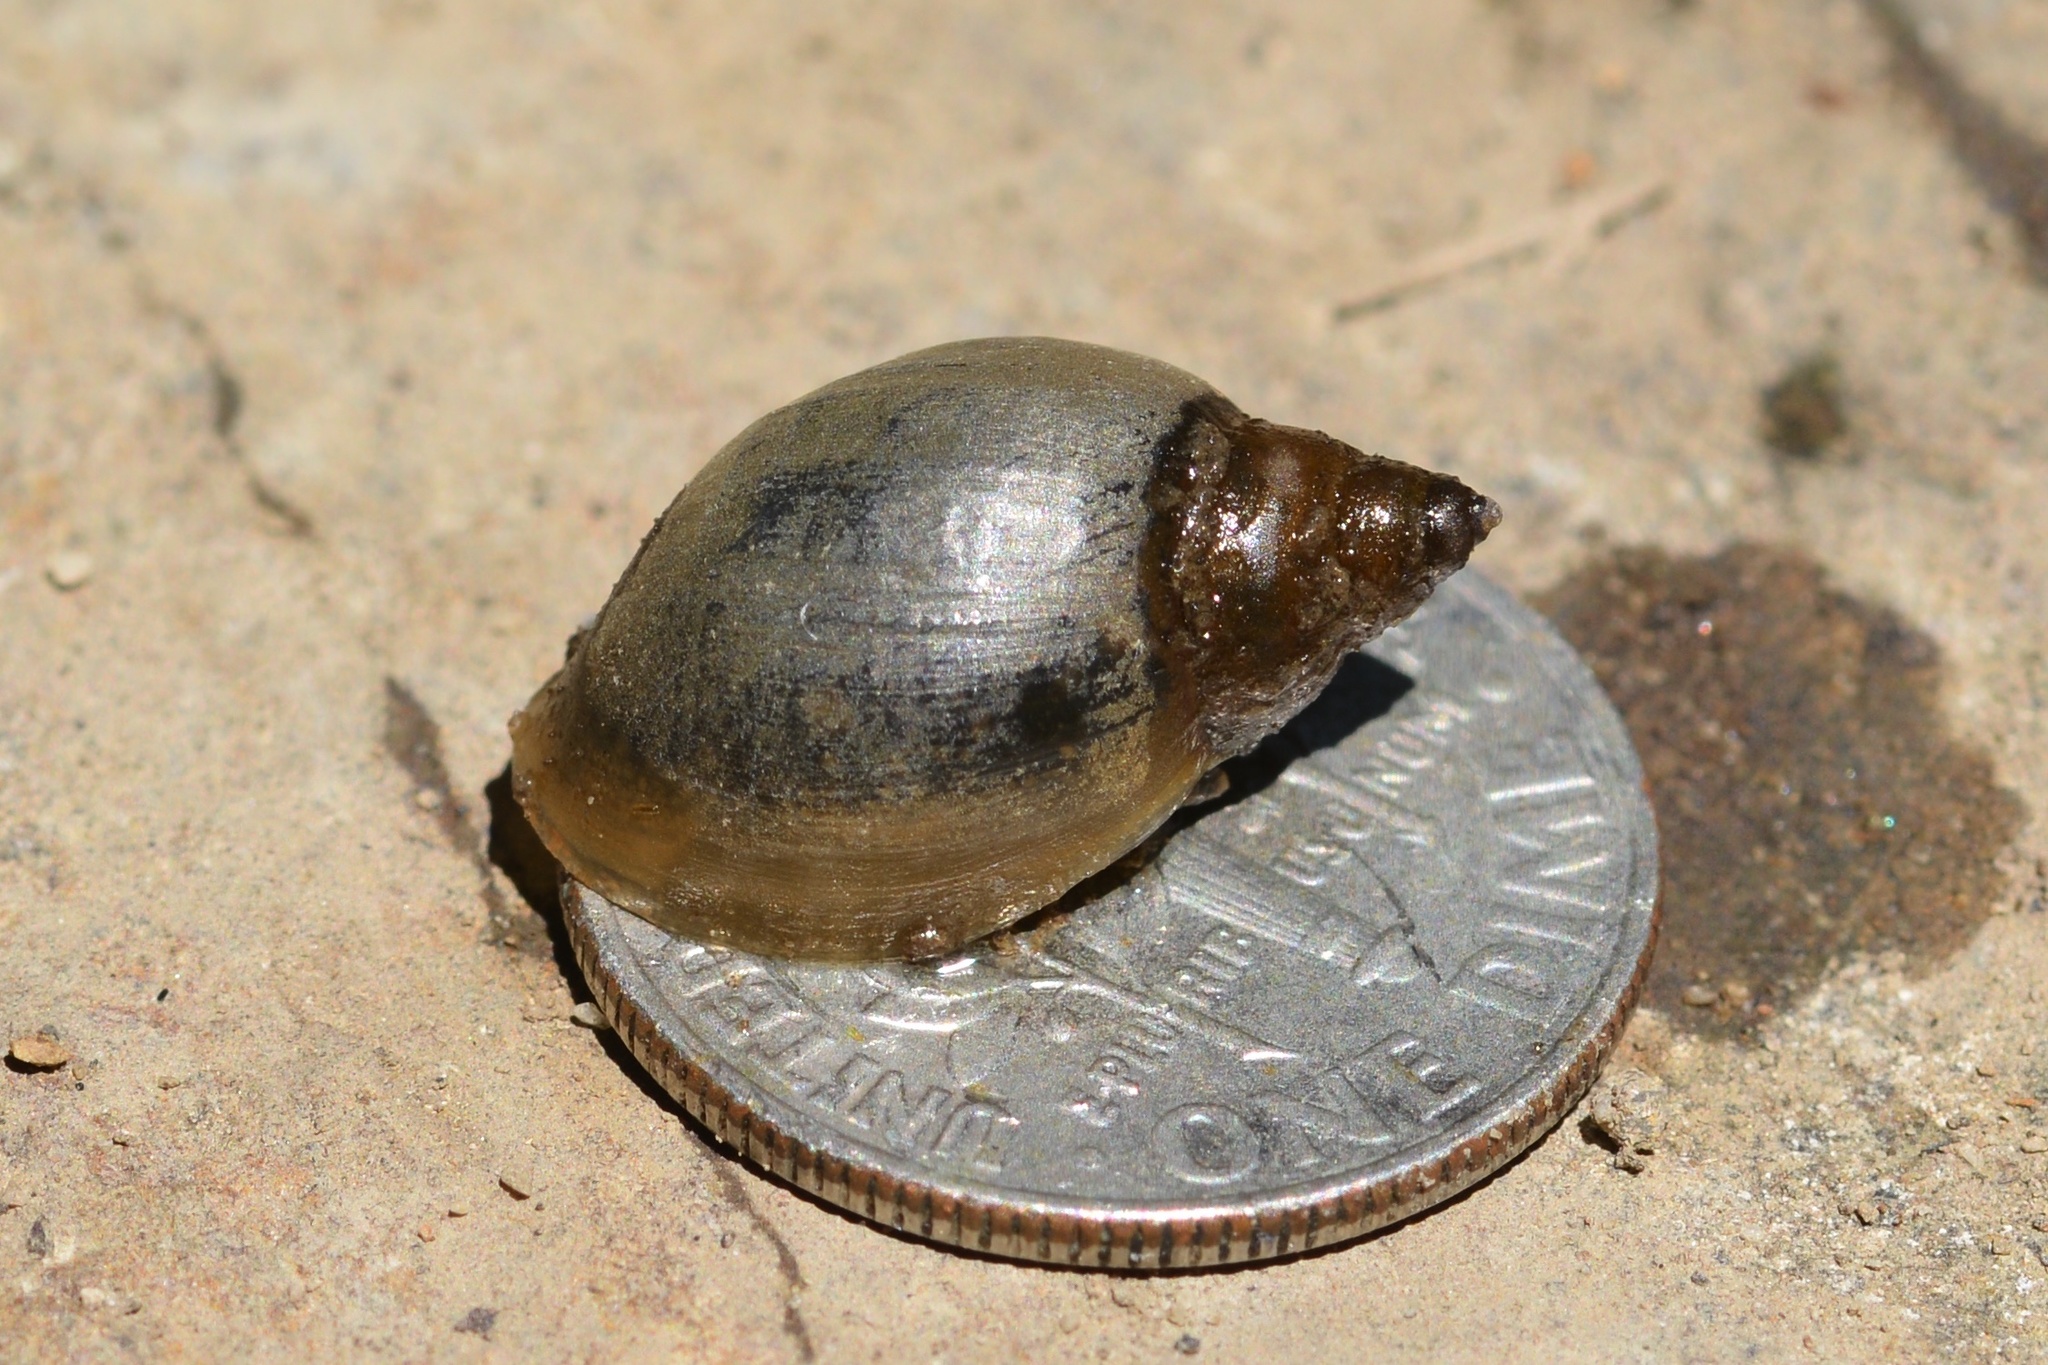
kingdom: Animalia
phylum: Mollusca
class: Gastropoda
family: Physidae
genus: Physella
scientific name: Physella
